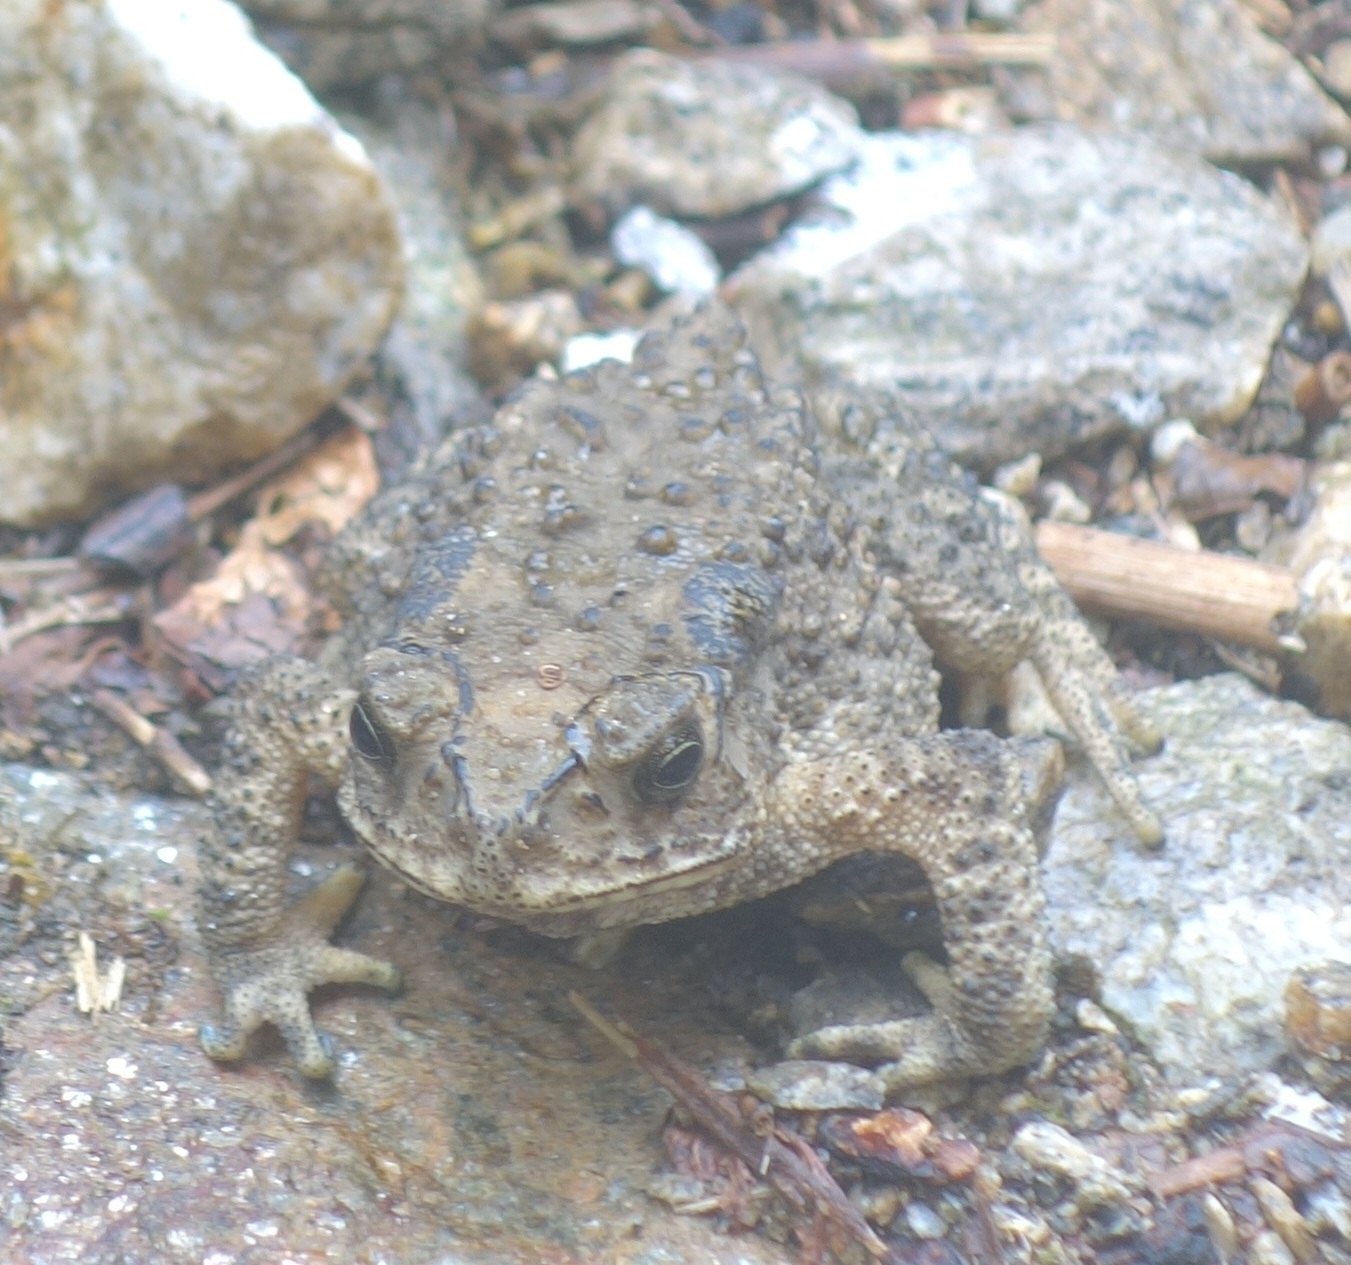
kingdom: Animalia
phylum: Chordata
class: Amphibia
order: Anura
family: Bufonidae
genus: Duttaphrynus
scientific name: Duttaphrynus melanostictus
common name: Common sunda toad
